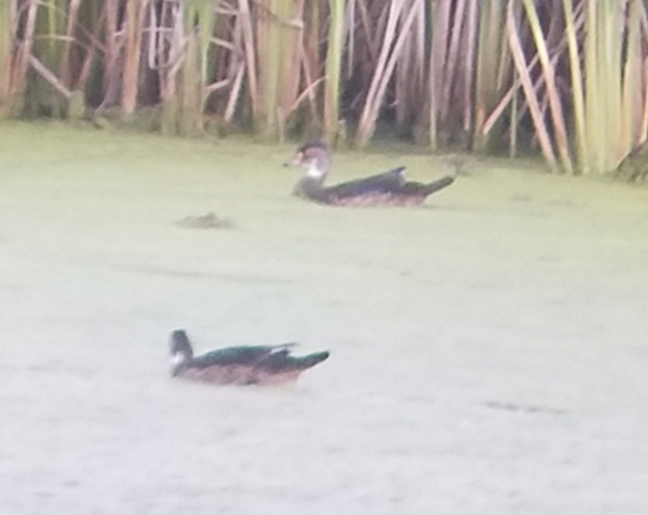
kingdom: Animalia
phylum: Chordata
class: Aves
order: Anseriformes
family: Anatidae
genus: Aix
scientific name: Aix sponsa
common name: Wood duck
